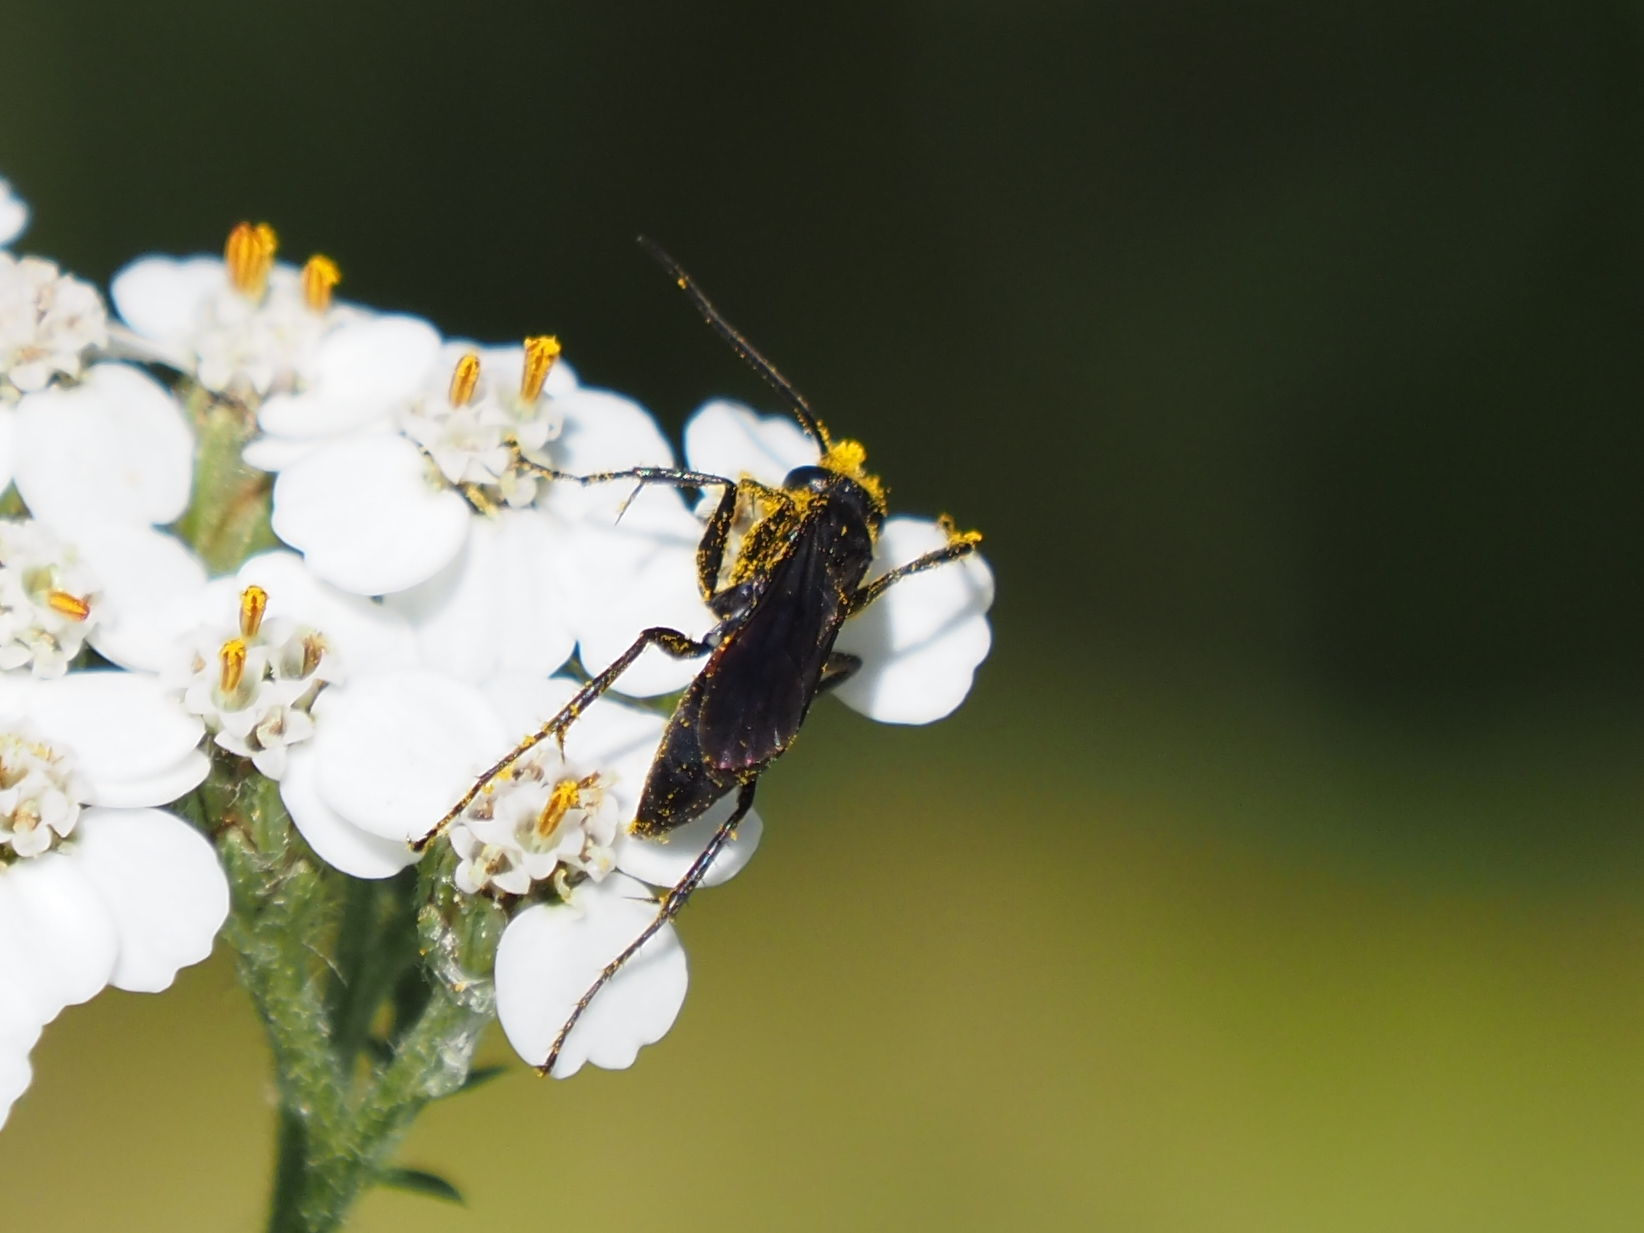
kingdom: Animalia
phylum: Arthropoda
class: Insecta
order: Hymenoptera
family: Pompilidae
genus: Arachnospila
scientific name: Arachnospila fumipennis
